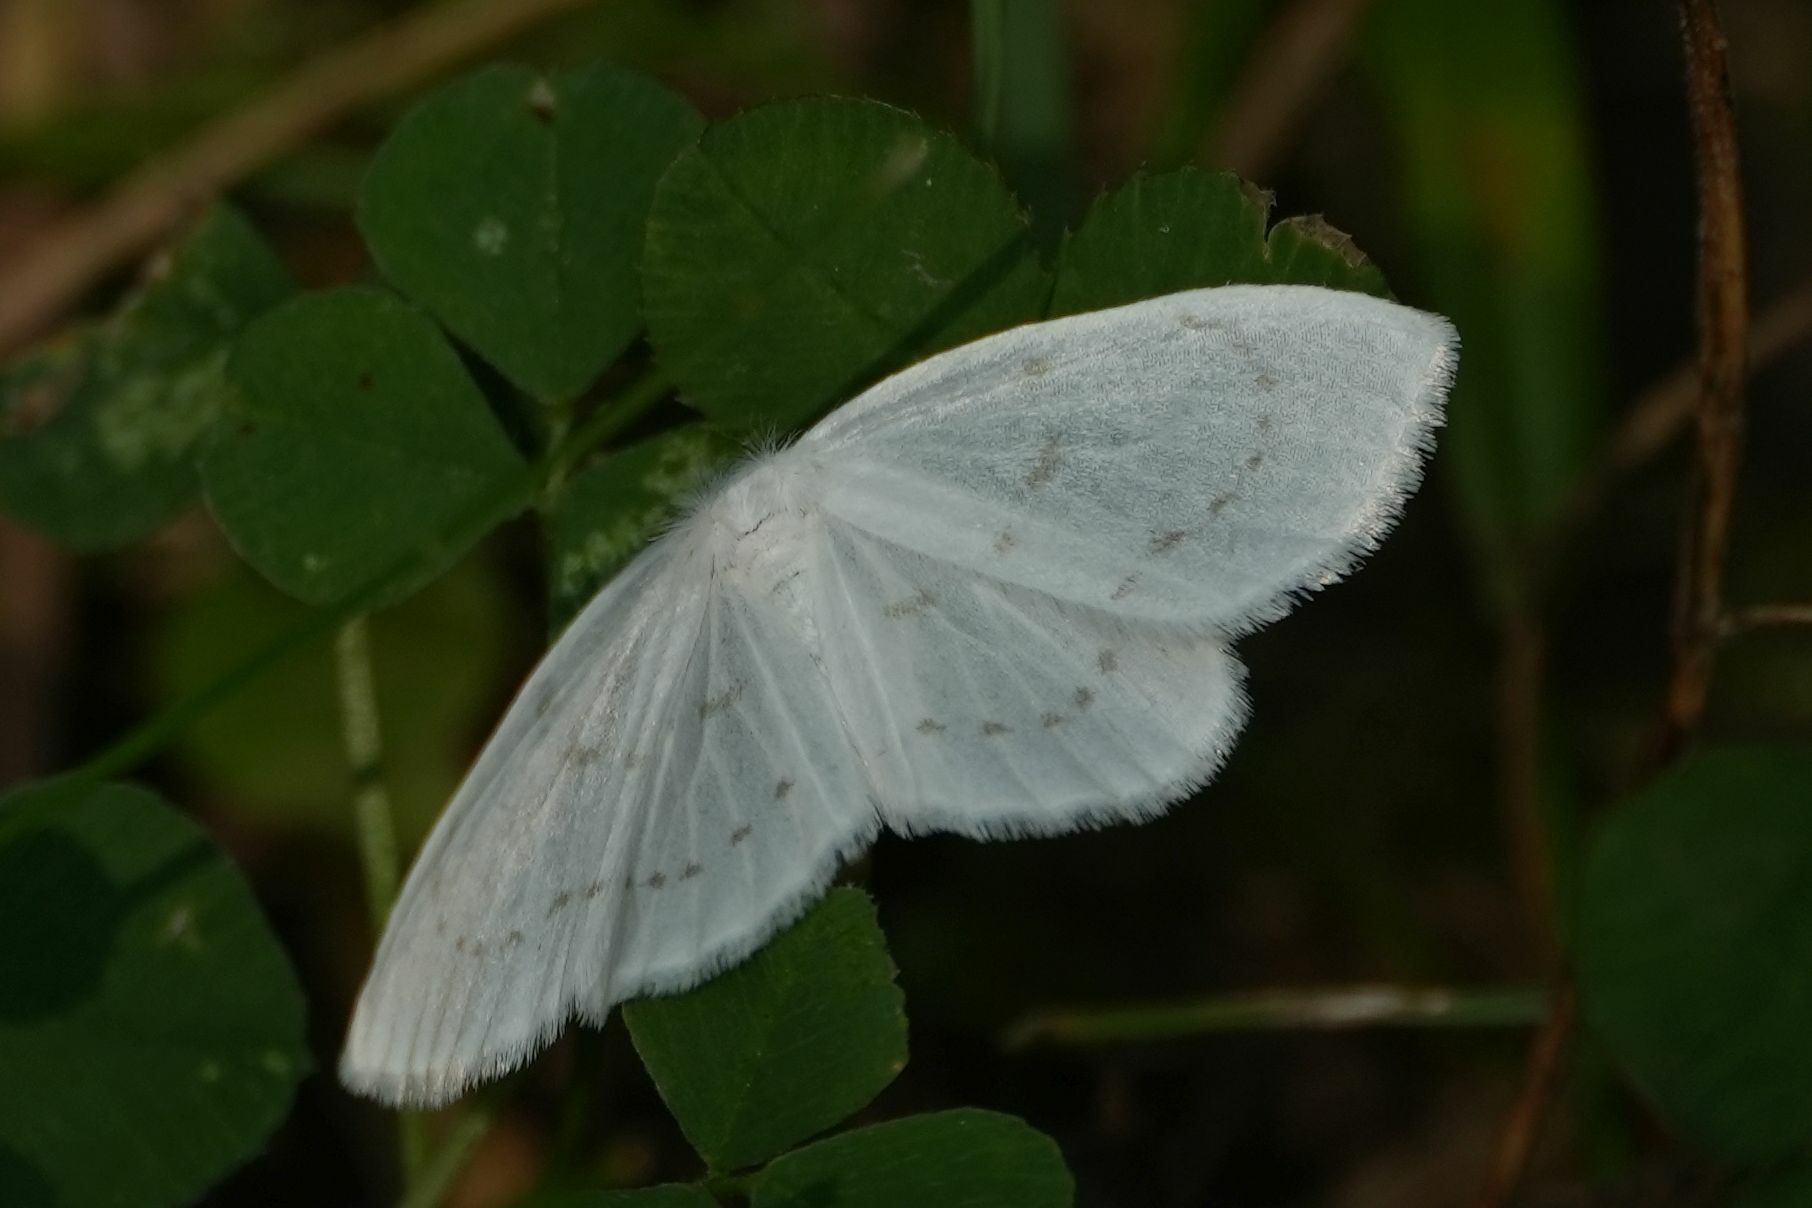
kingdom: Animalia
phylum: Arthropoda
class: Insecta
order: Lepidoptera
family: Drepanidae
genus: Eudeilinia
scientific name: Eudeilinia herminiata
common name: Northern eudeilinea moth
